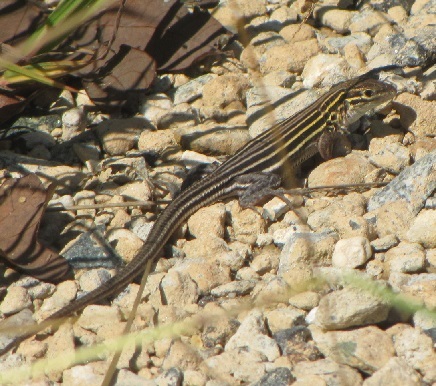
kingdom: Animalia
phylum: Chordata
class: Squamata
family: Teiidae
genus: Aspidoscelis
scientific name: Aspidoscelis sexlineatus
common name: Six-lined racerunner
